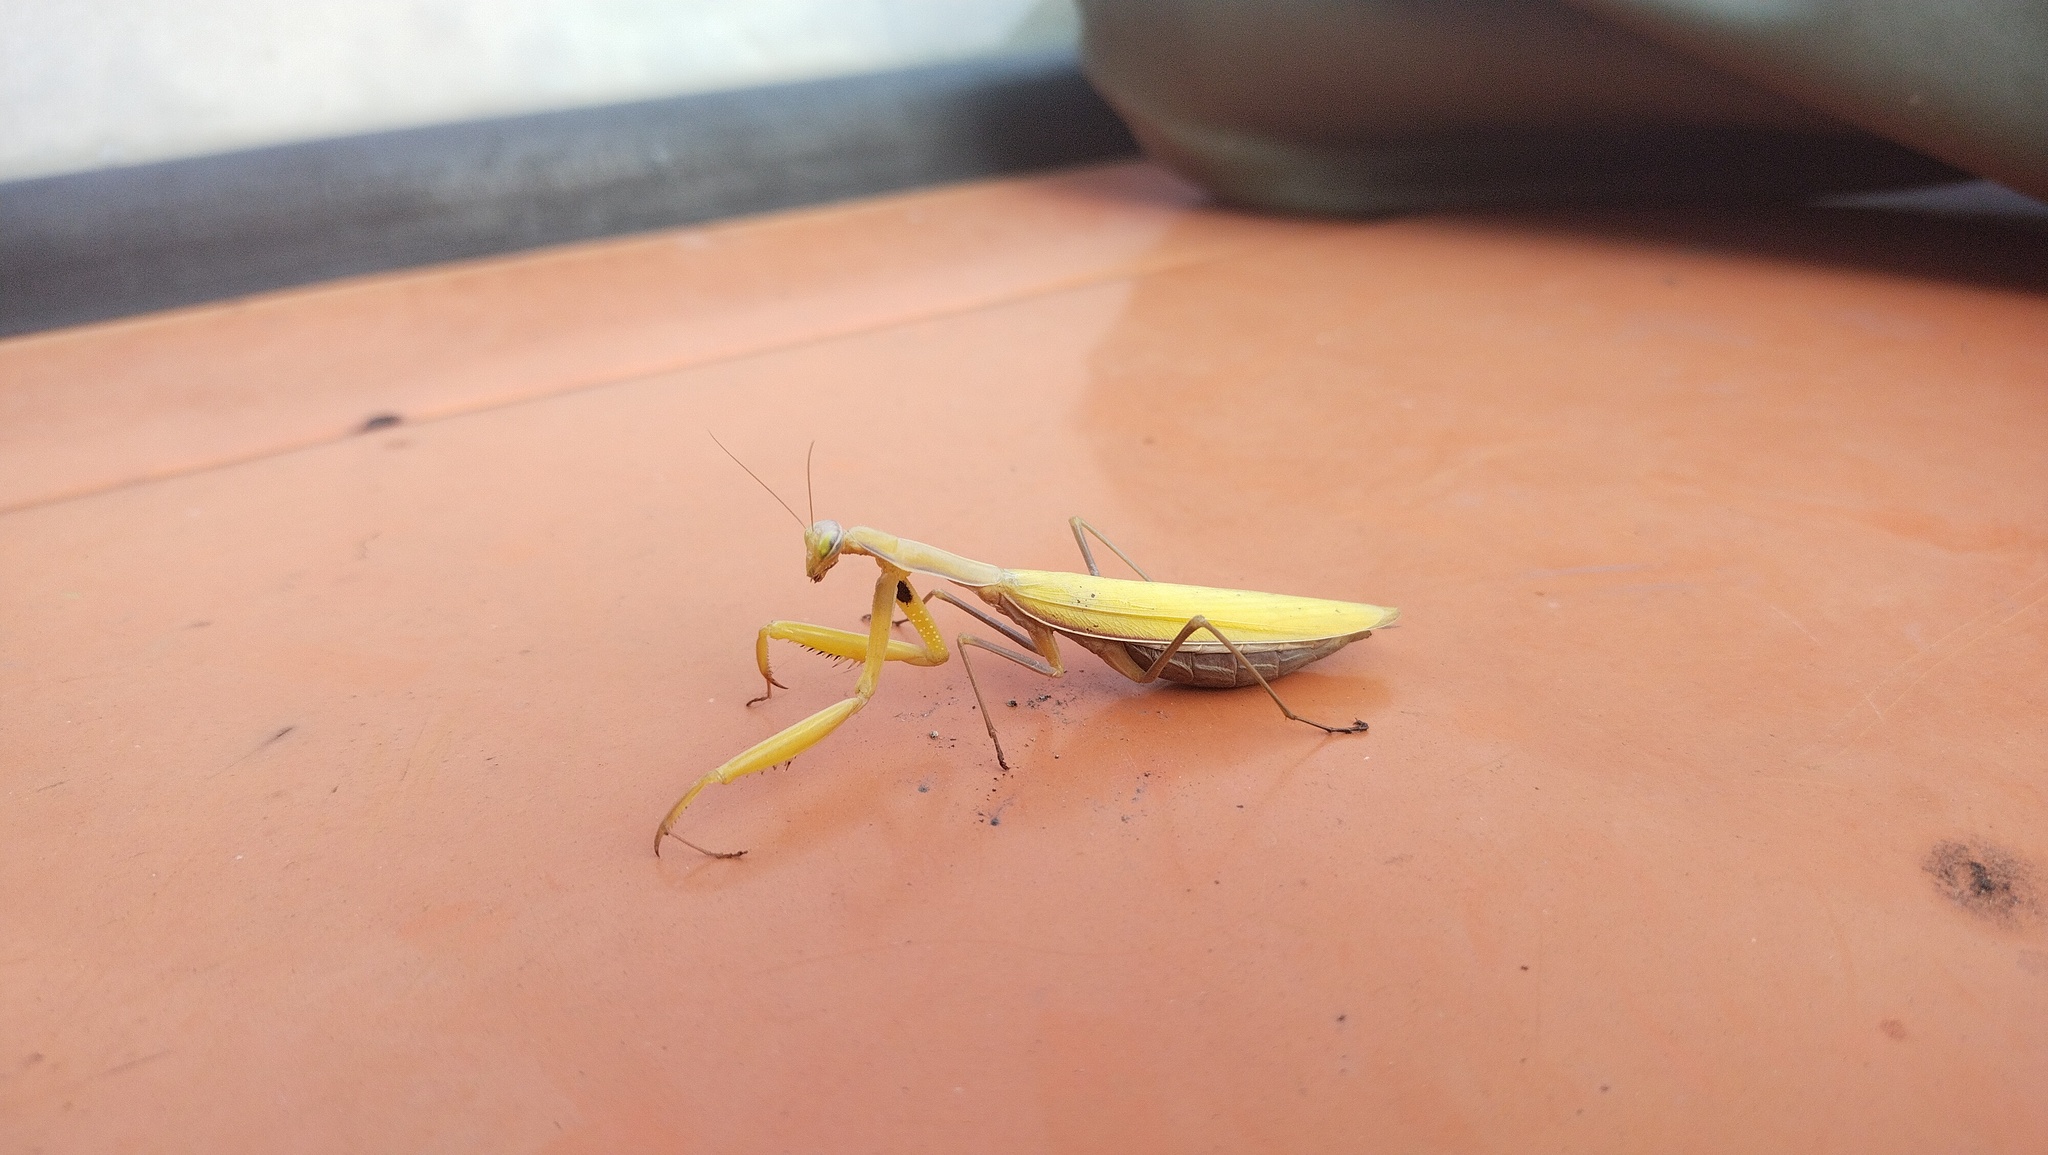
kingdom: Animalia
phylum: Arthropoda
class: Insecta
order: Mantodea
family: Mantidae
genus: Mantis
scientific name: Mantis religiosa
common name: Praying mantis
